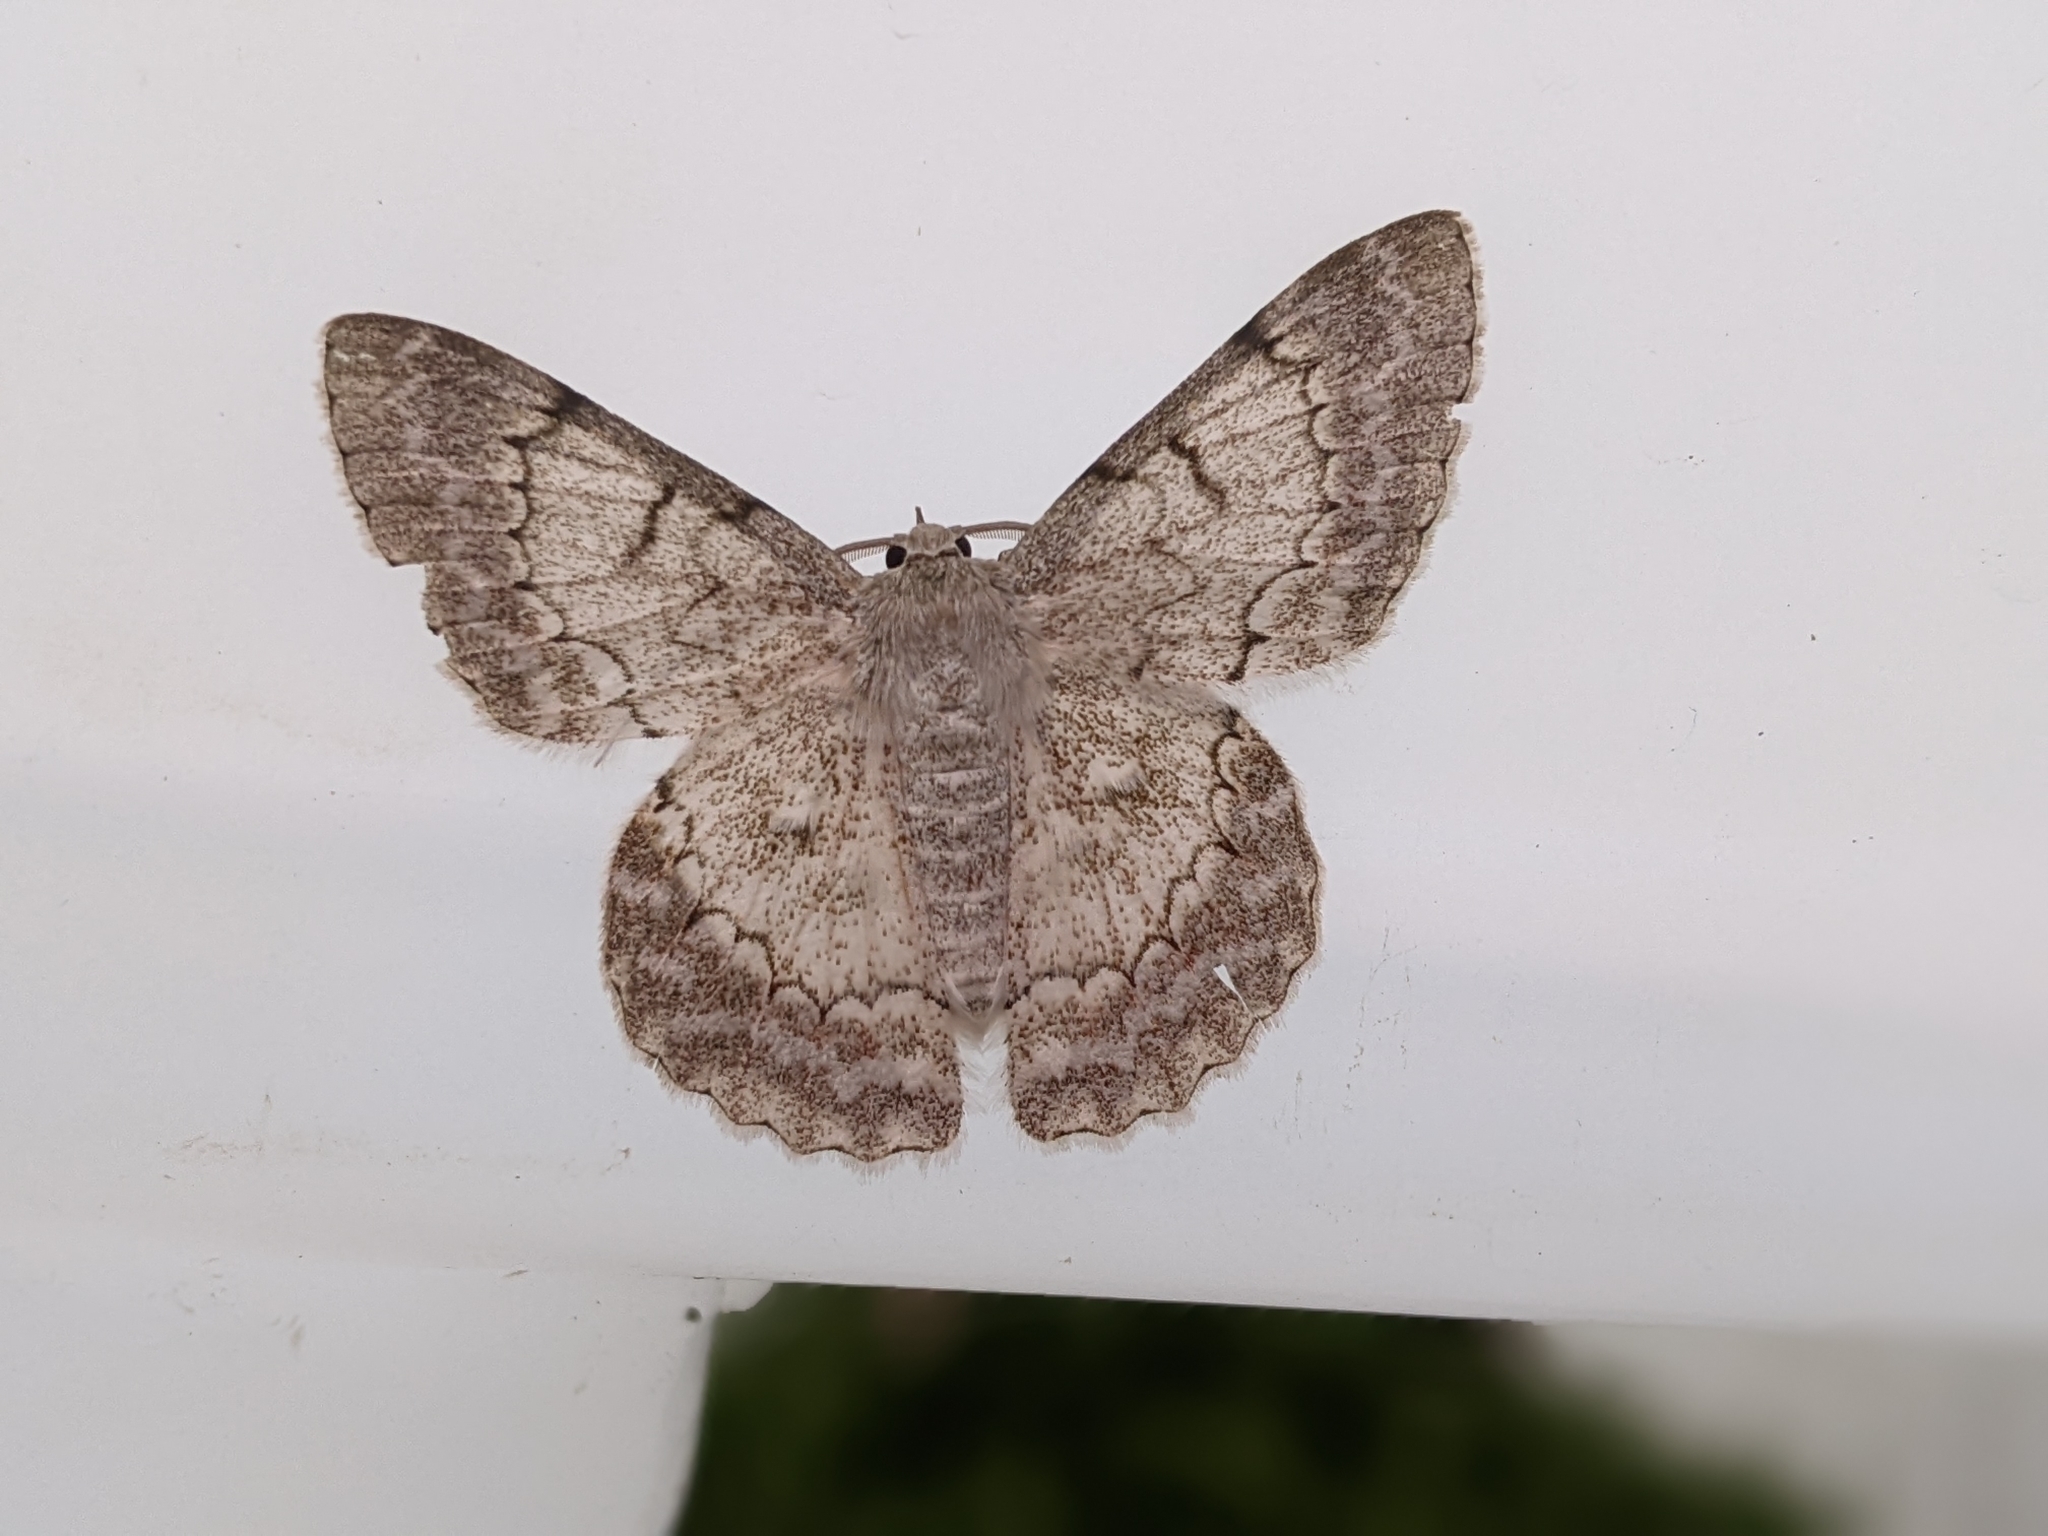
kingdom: Animalia
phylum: Arthropoda
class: Insecta
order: Lepidoptera
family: Geometridae
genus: Pingasa
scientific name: Pingasa chlora
